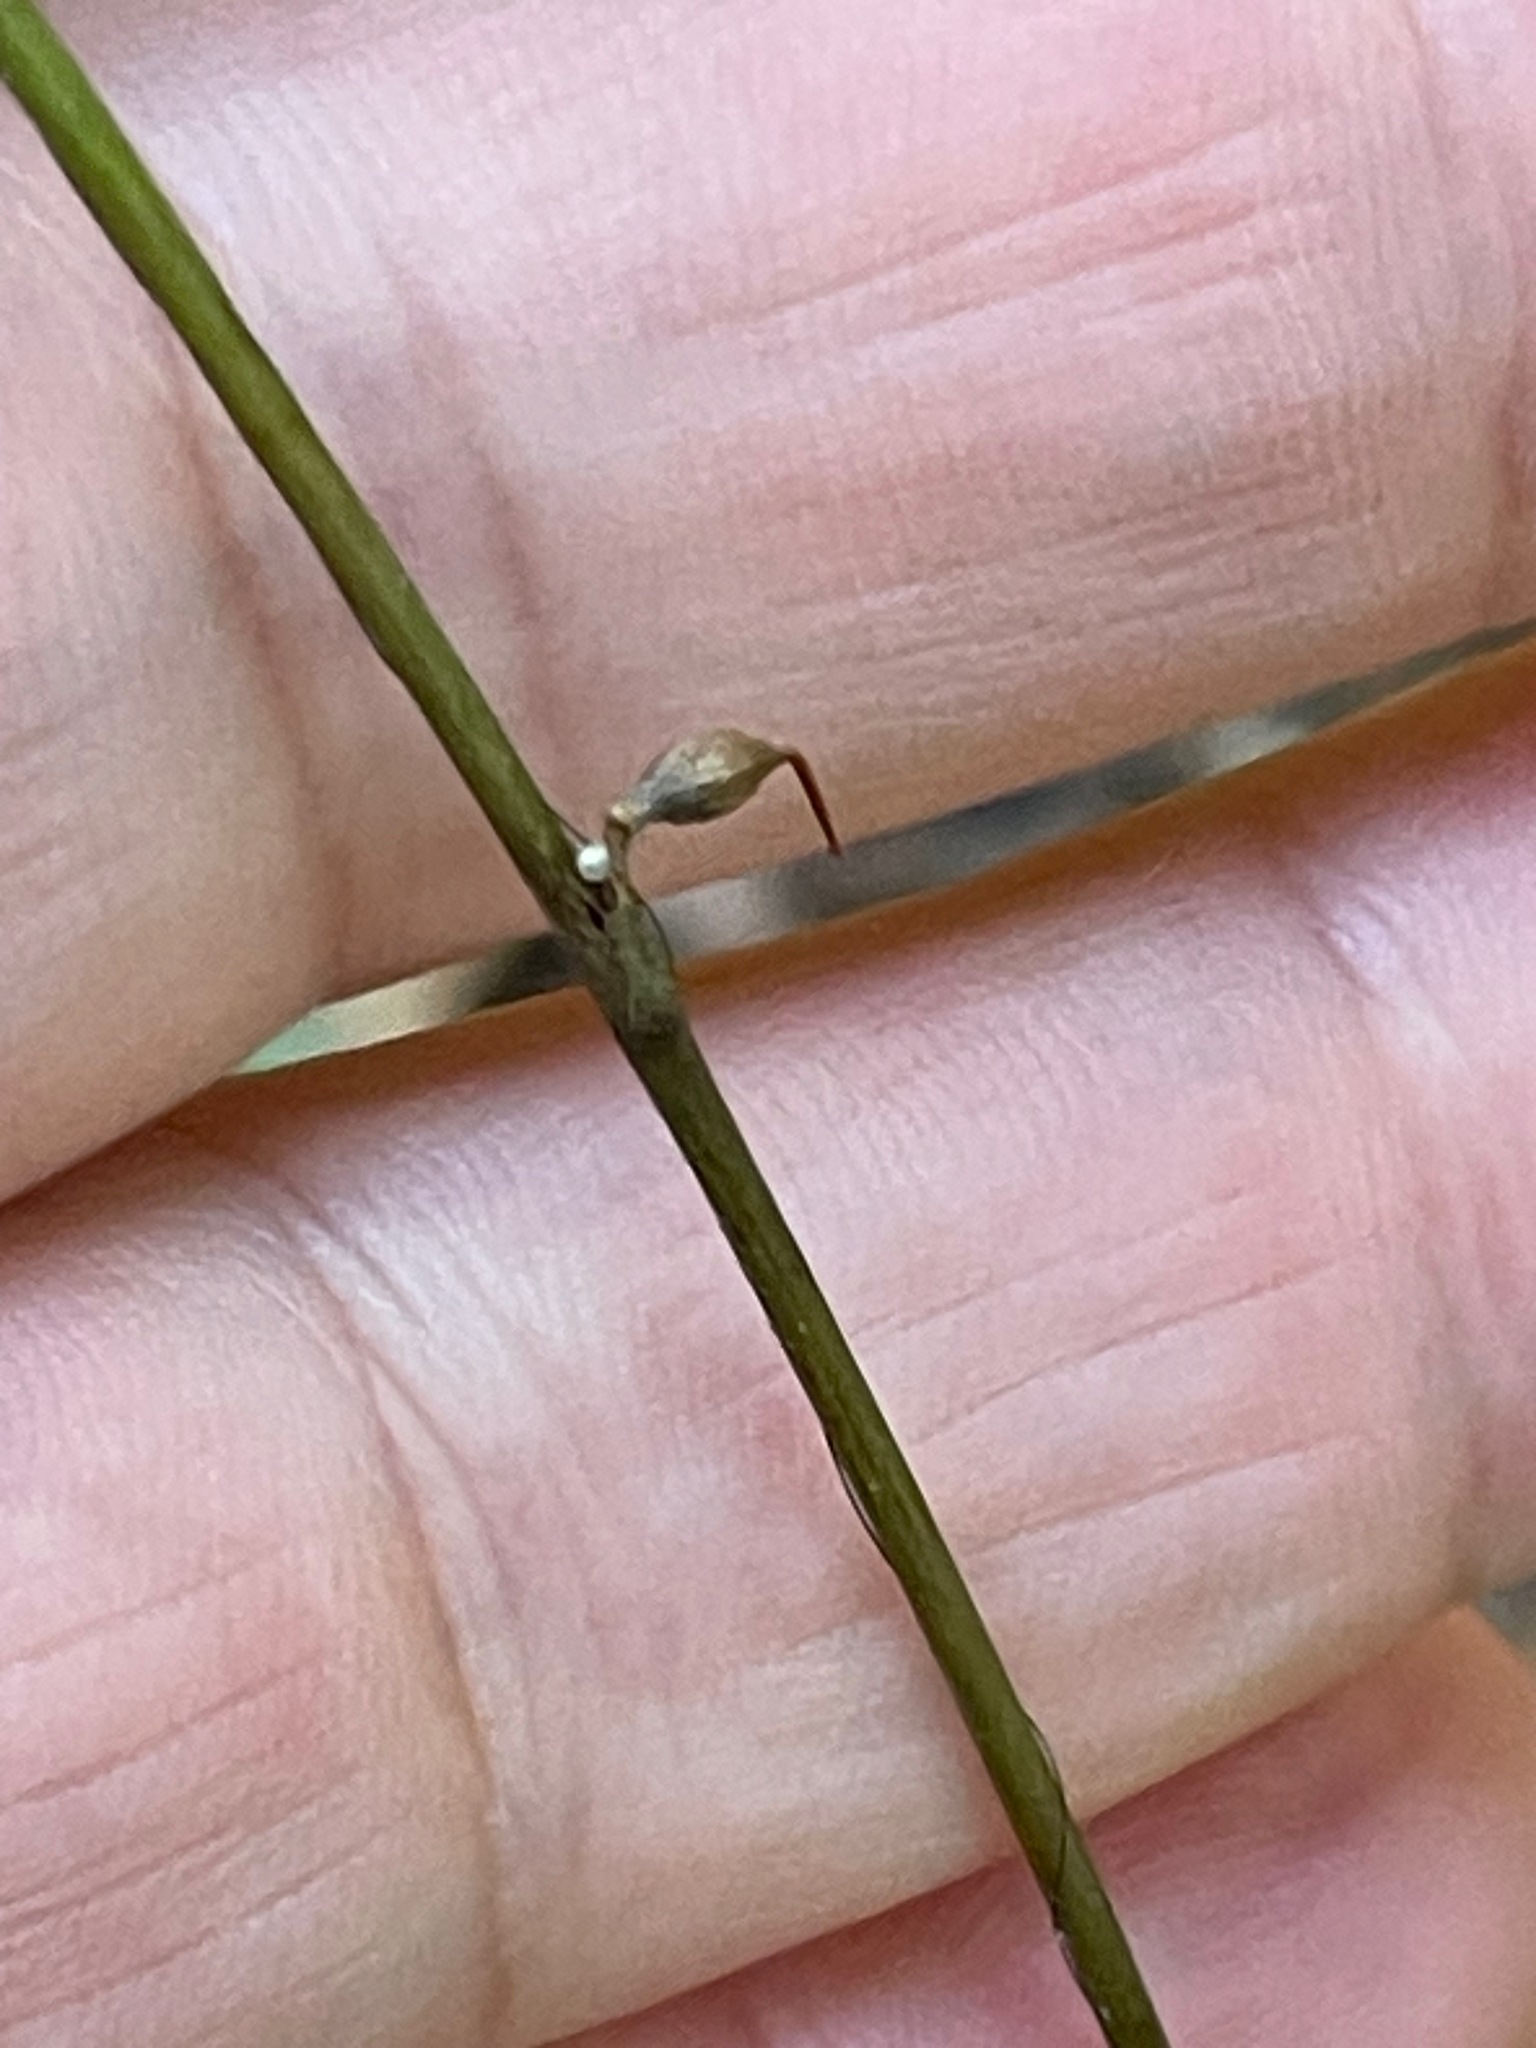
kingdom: Plantae
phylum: Tracheophyta
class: Magnoliopsida
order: Caryophyllales
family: Polygonaceae
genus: Persicaria
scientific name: Persicaria virginiana
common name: Jumpseed
